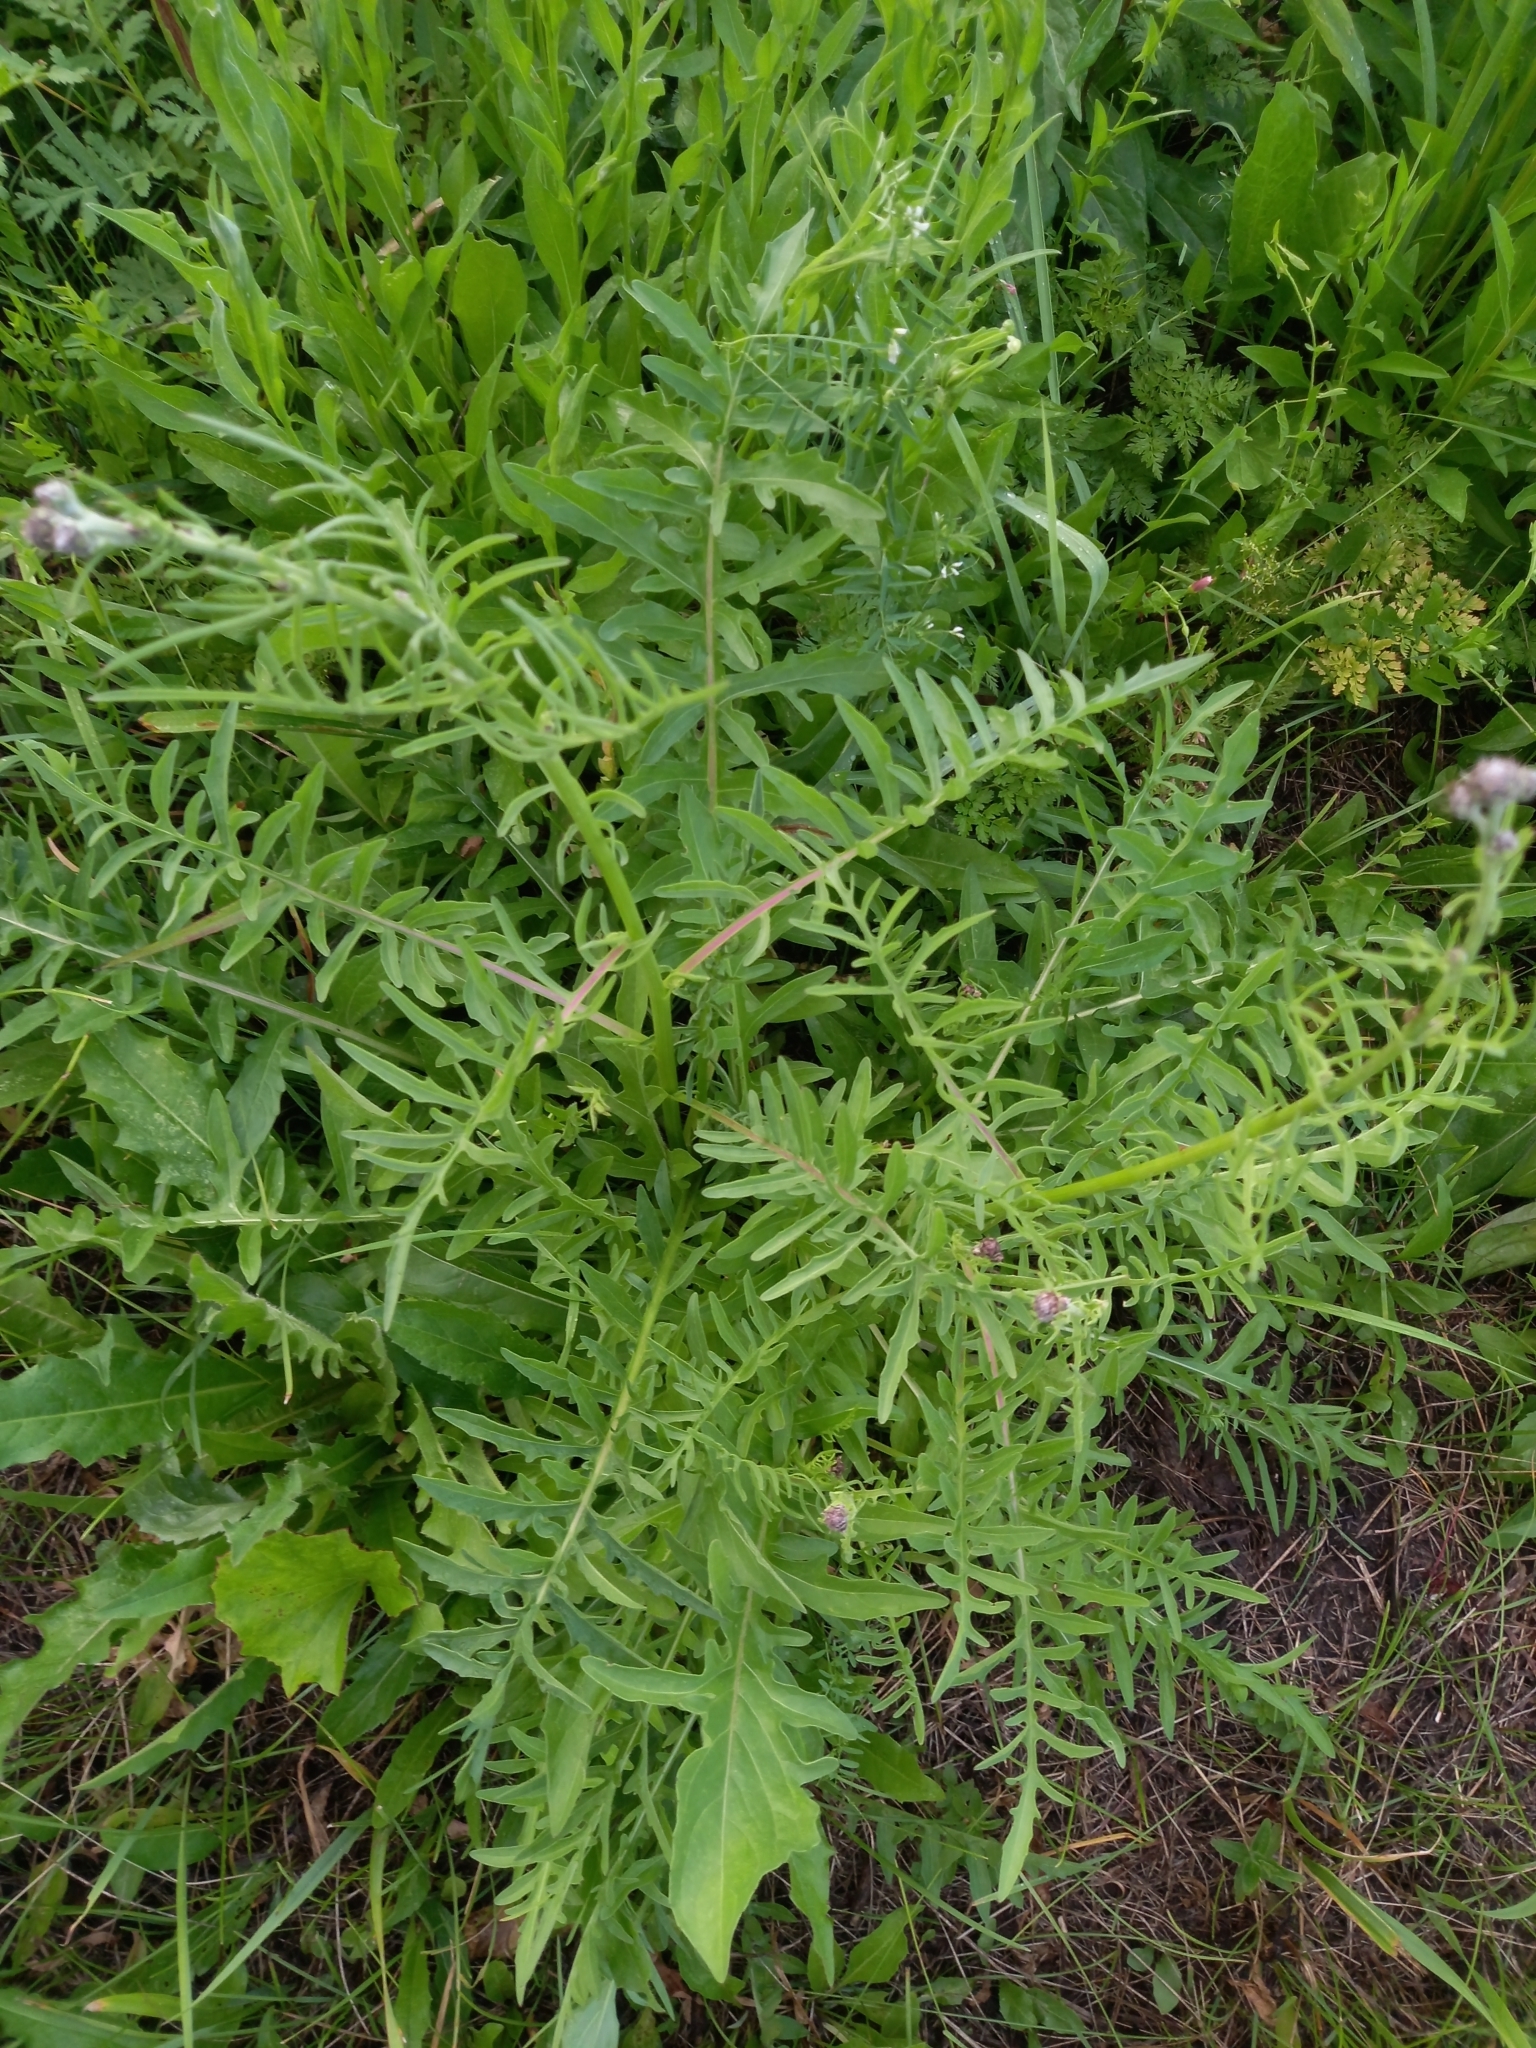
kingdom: Plantae
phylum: Tracheophyta
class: Magnoliopsida
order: Asterales
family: Asteraceae
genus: Centaurea
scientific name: Centaurea scabiosa
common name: Greater knapweed
